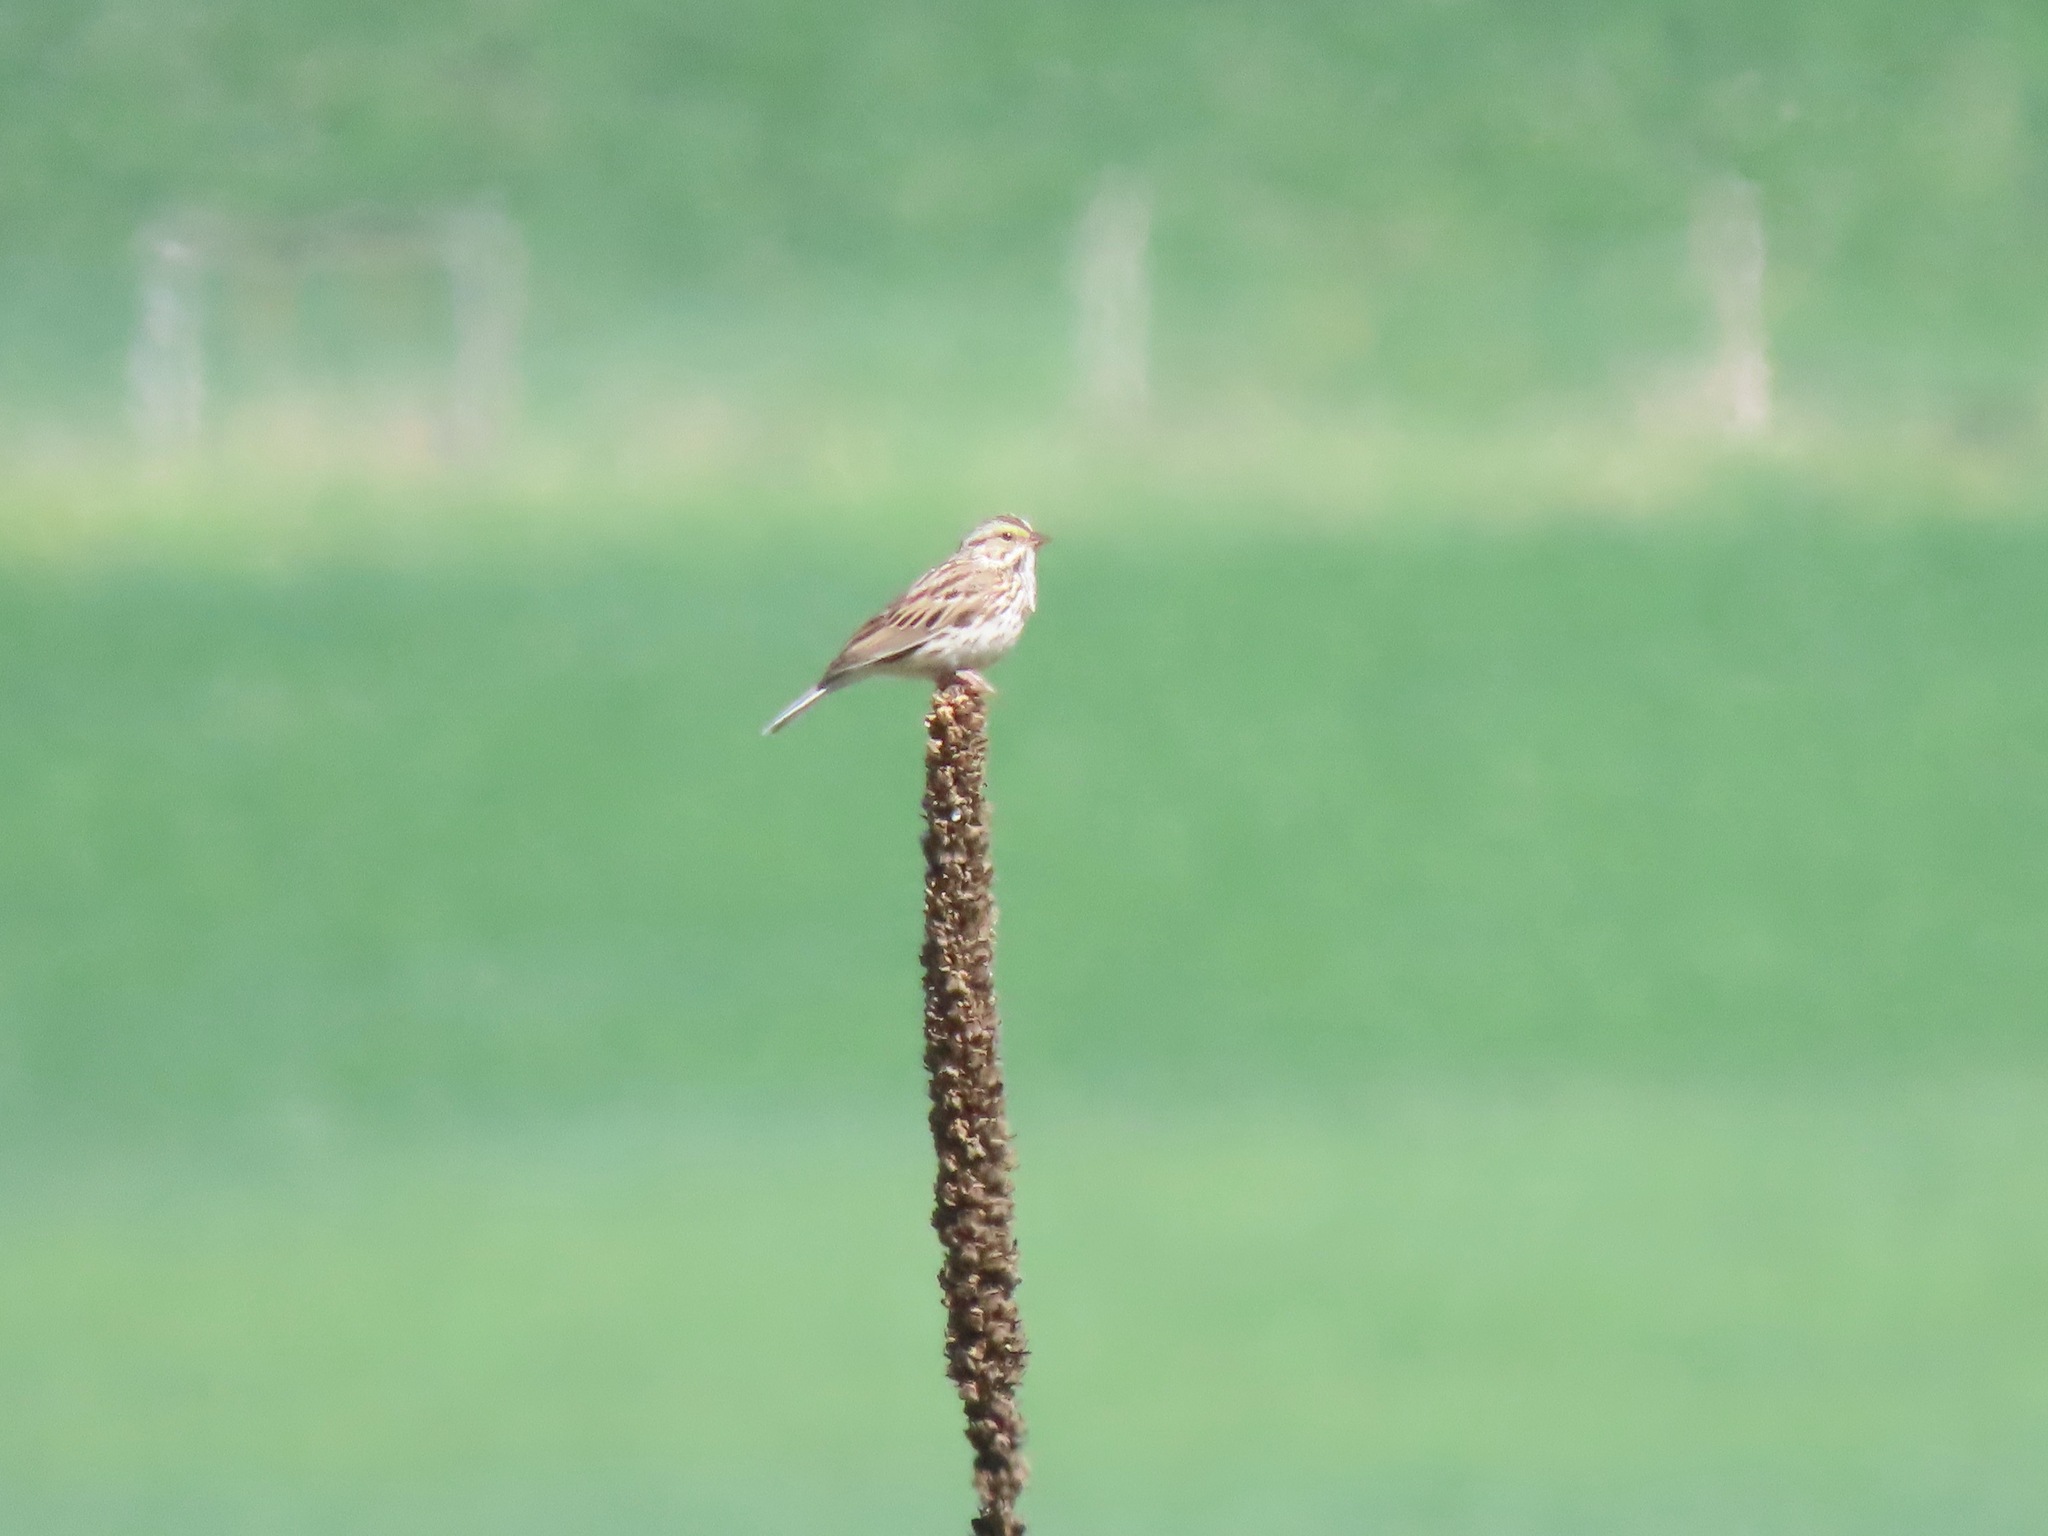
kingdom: Animalia
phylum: Chordata
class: Aves
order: Passeriformes
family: Passerellidae
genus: Passerculus
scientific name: Passerculus sandwichensis
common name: Savannah sparrow
